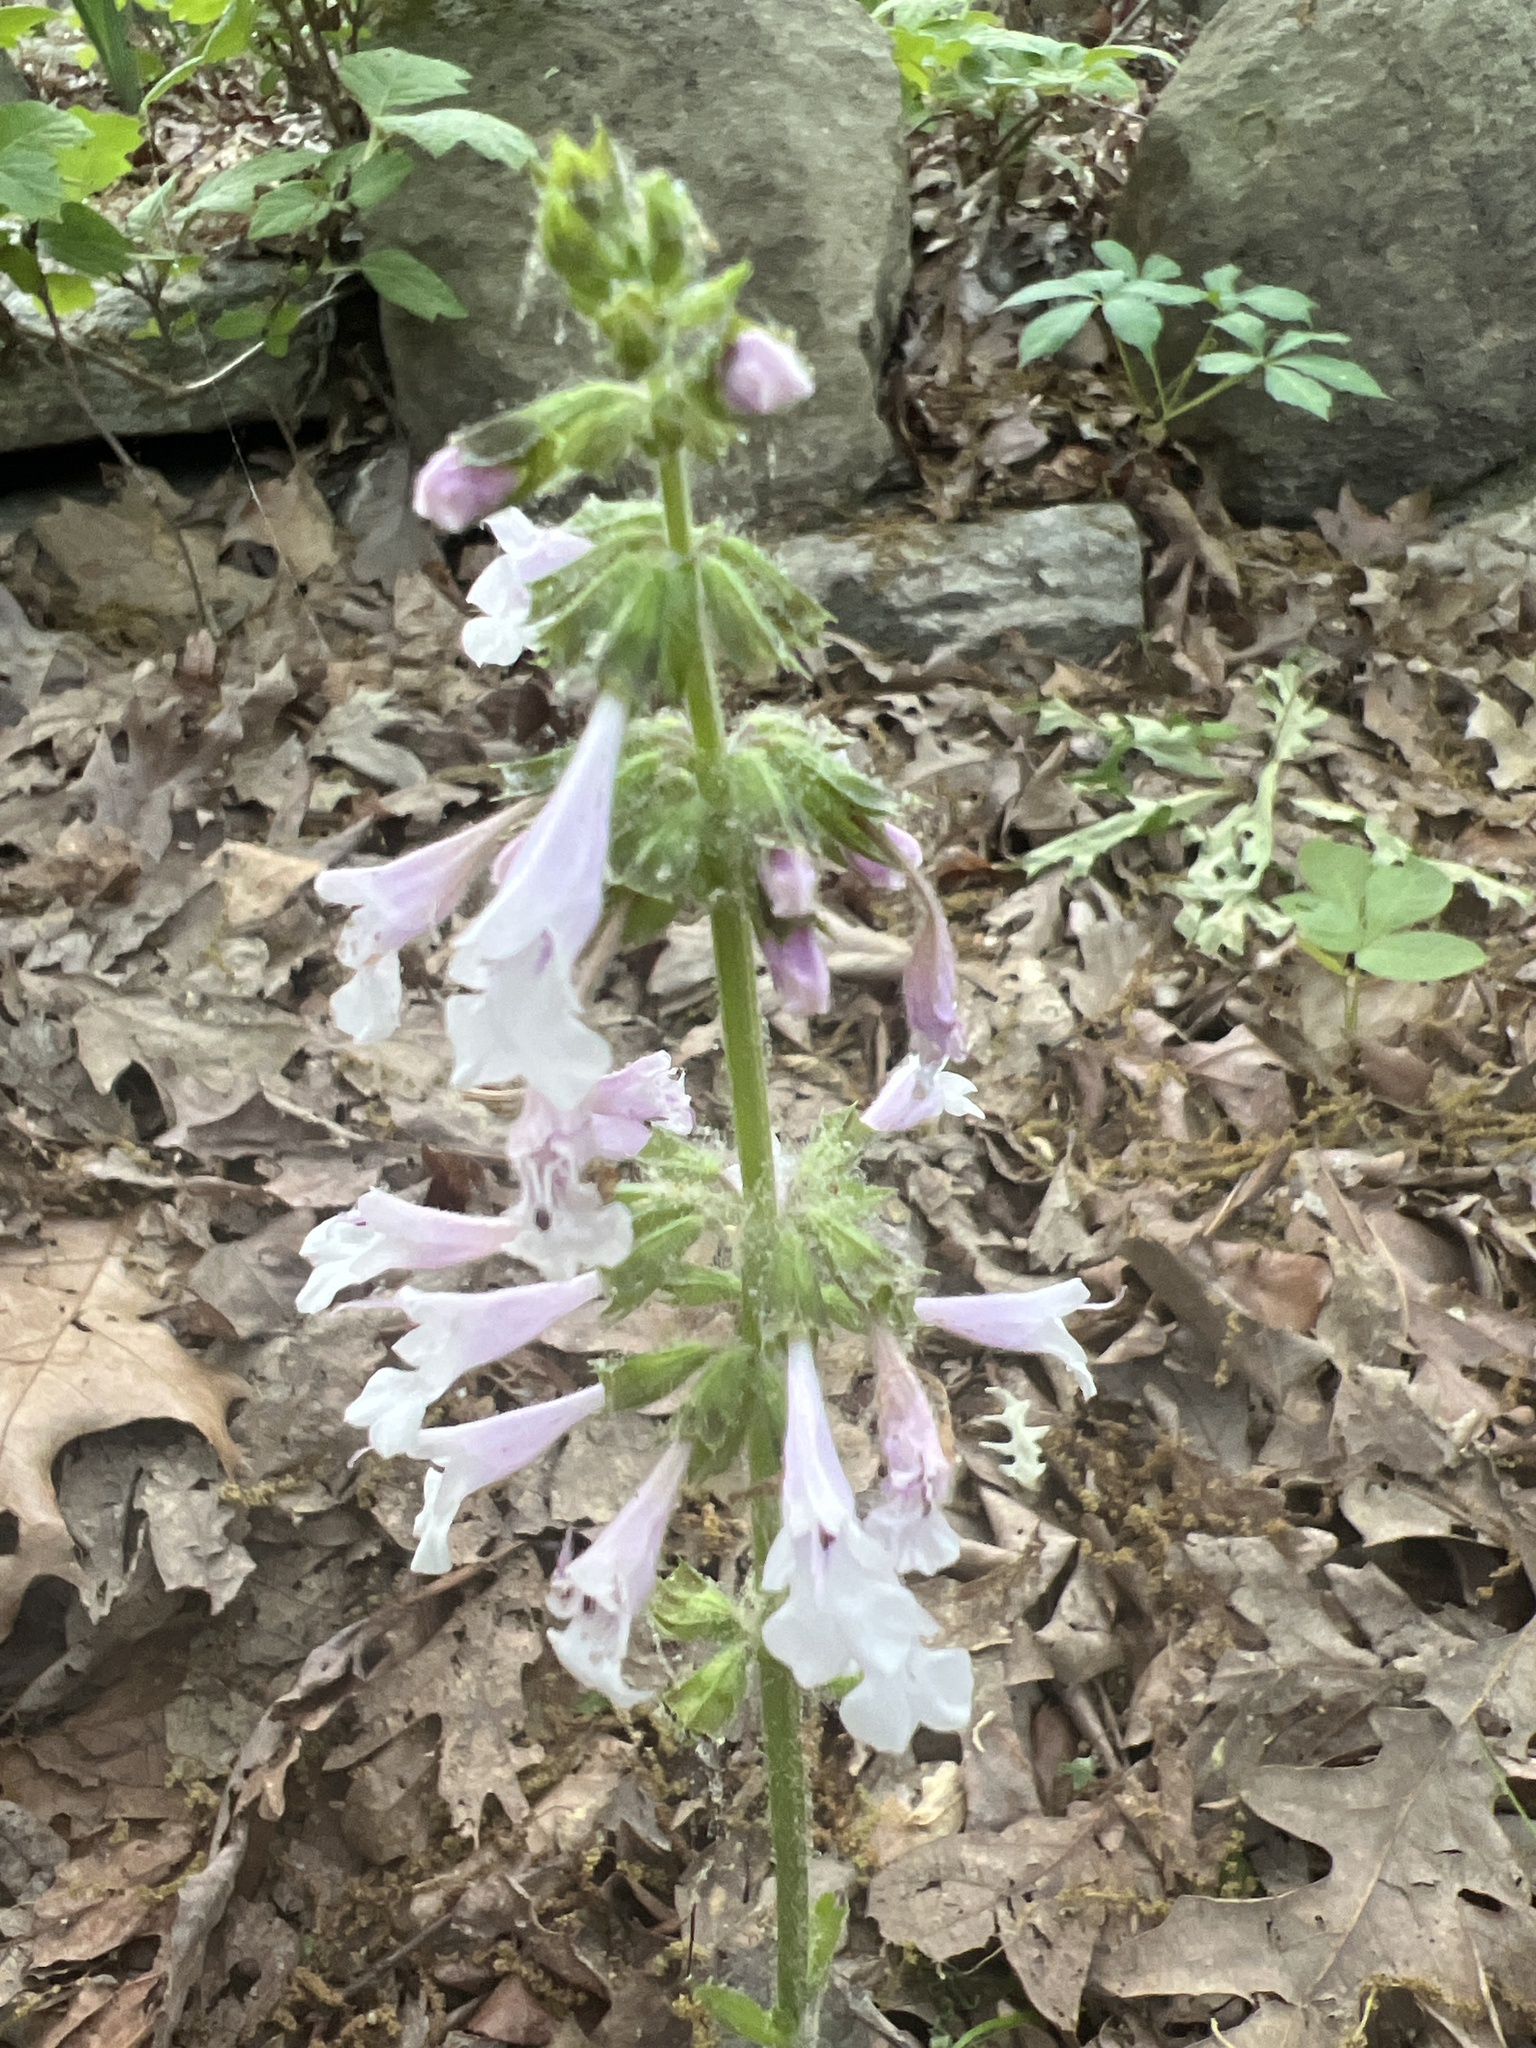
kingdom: Plantae
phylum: Tracheophyta
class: Magnoliopsida
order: Lamiales
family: Lamiaceae
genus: Salvia
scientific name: Salvia lyrata
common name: Cancerweed
